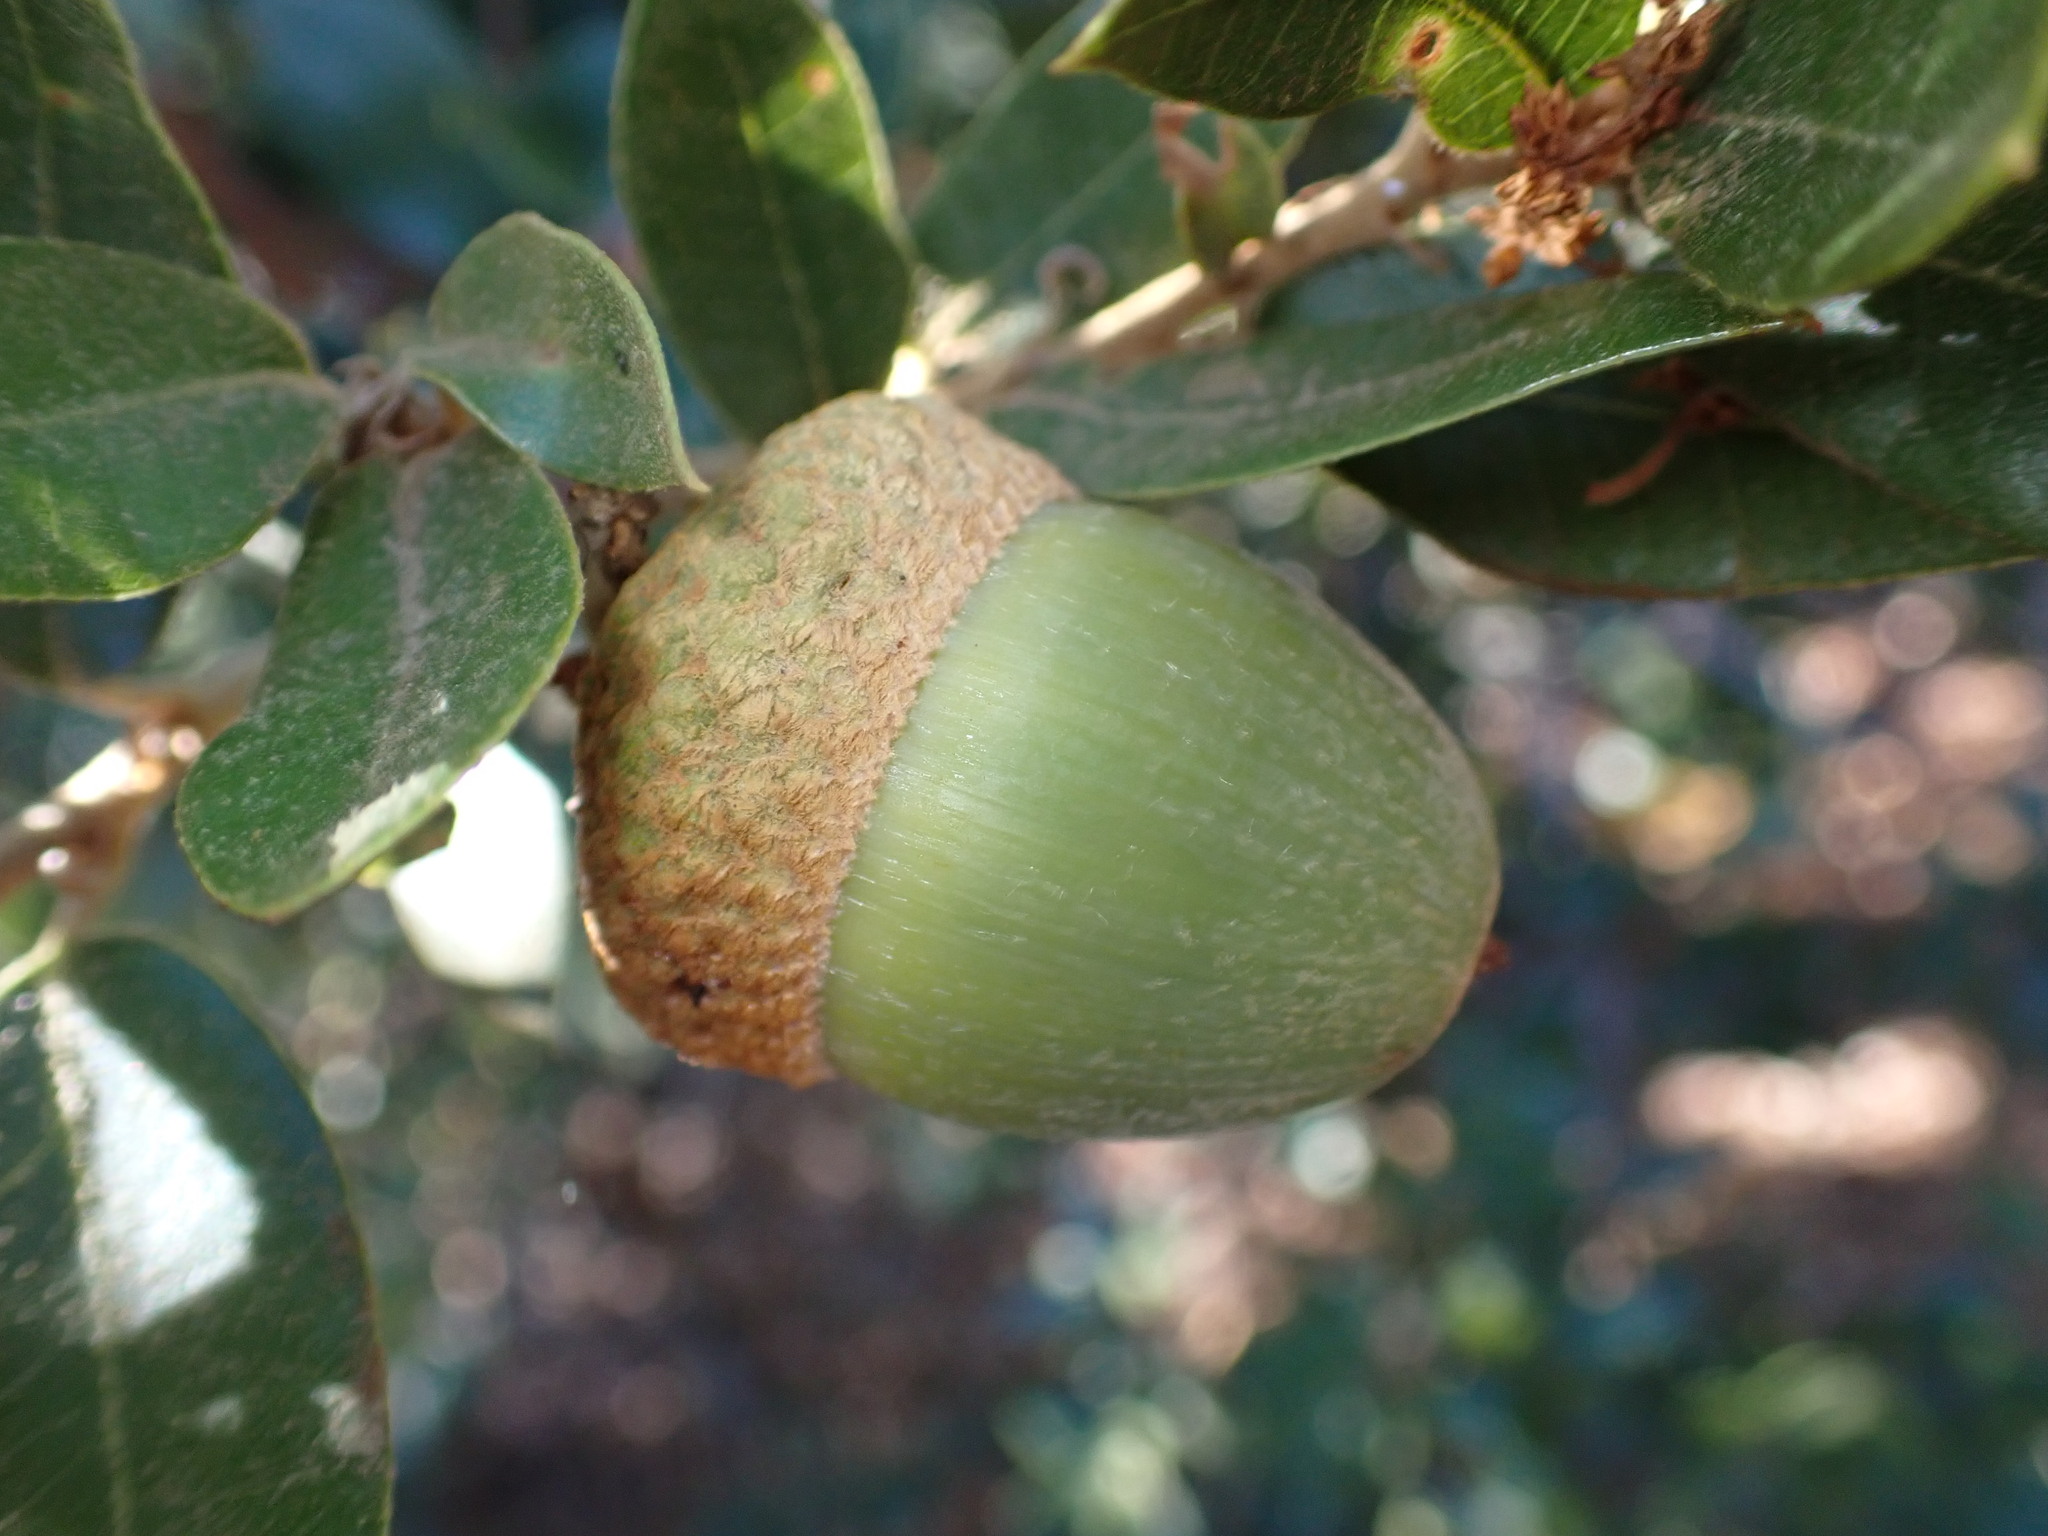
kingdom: Plantae
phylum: Tracheophyta
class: Magnoliopsida
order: Fagales
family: Fagaceae
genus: Quercus
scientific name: Quercus chrysolepis
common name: Canyon live oak
